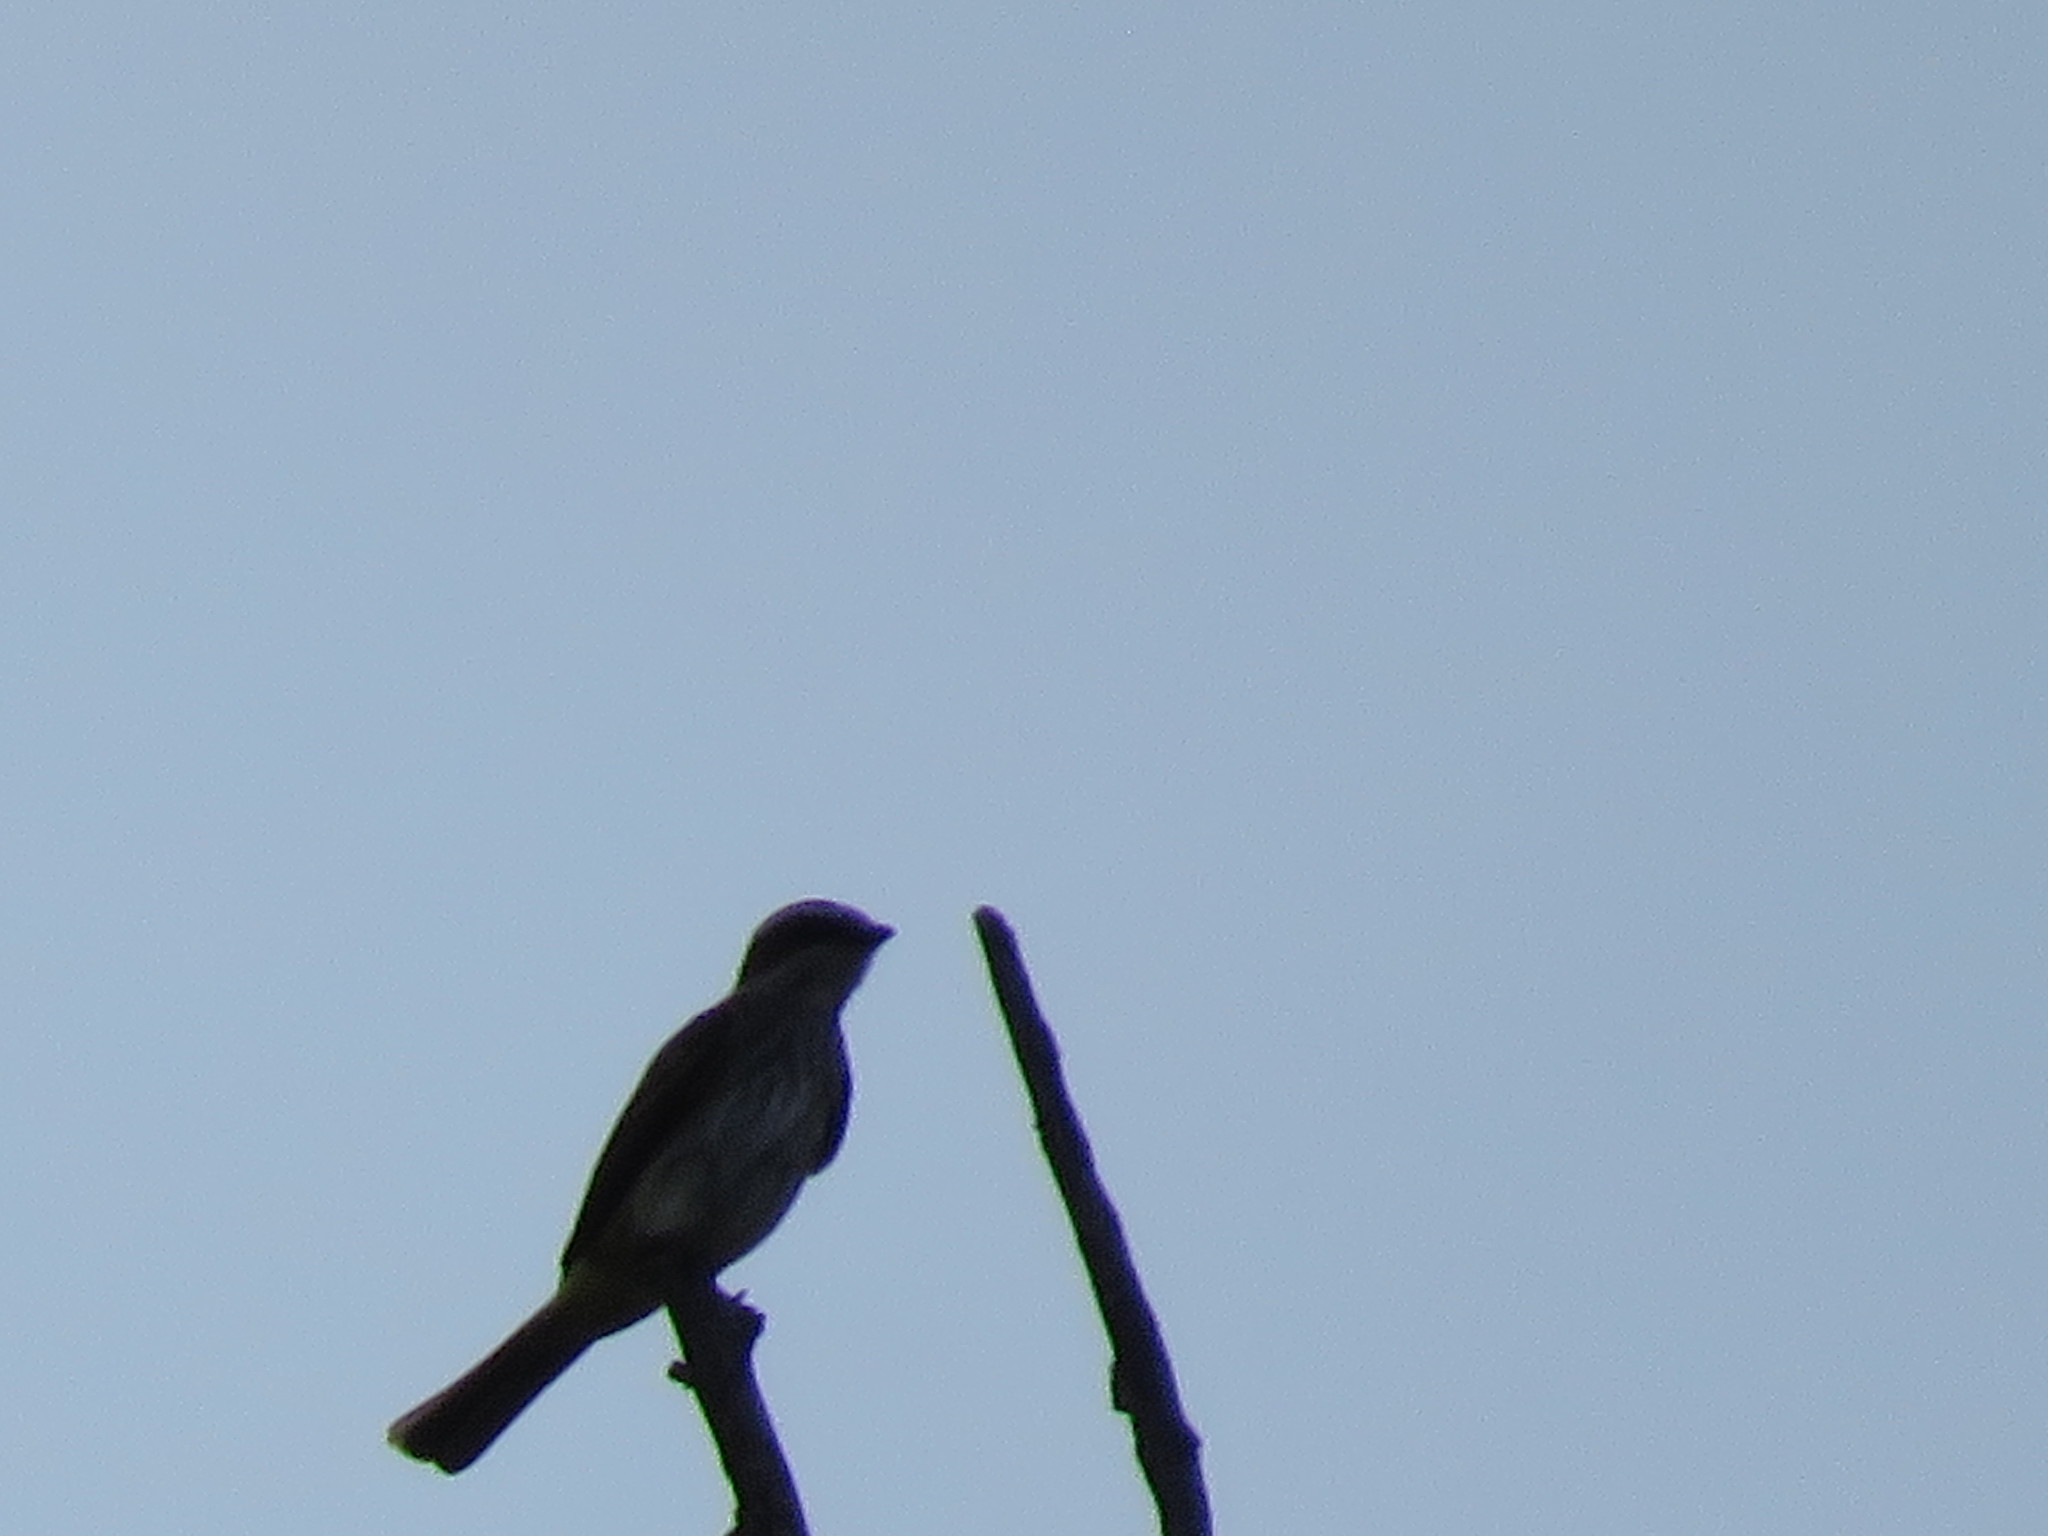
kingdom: Animalia
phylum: Chordata
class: Aves
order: Passeriformes
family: Tyrannidae
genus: Legatus
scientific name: Legatus leucophaius
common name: Piratic flycatcher
